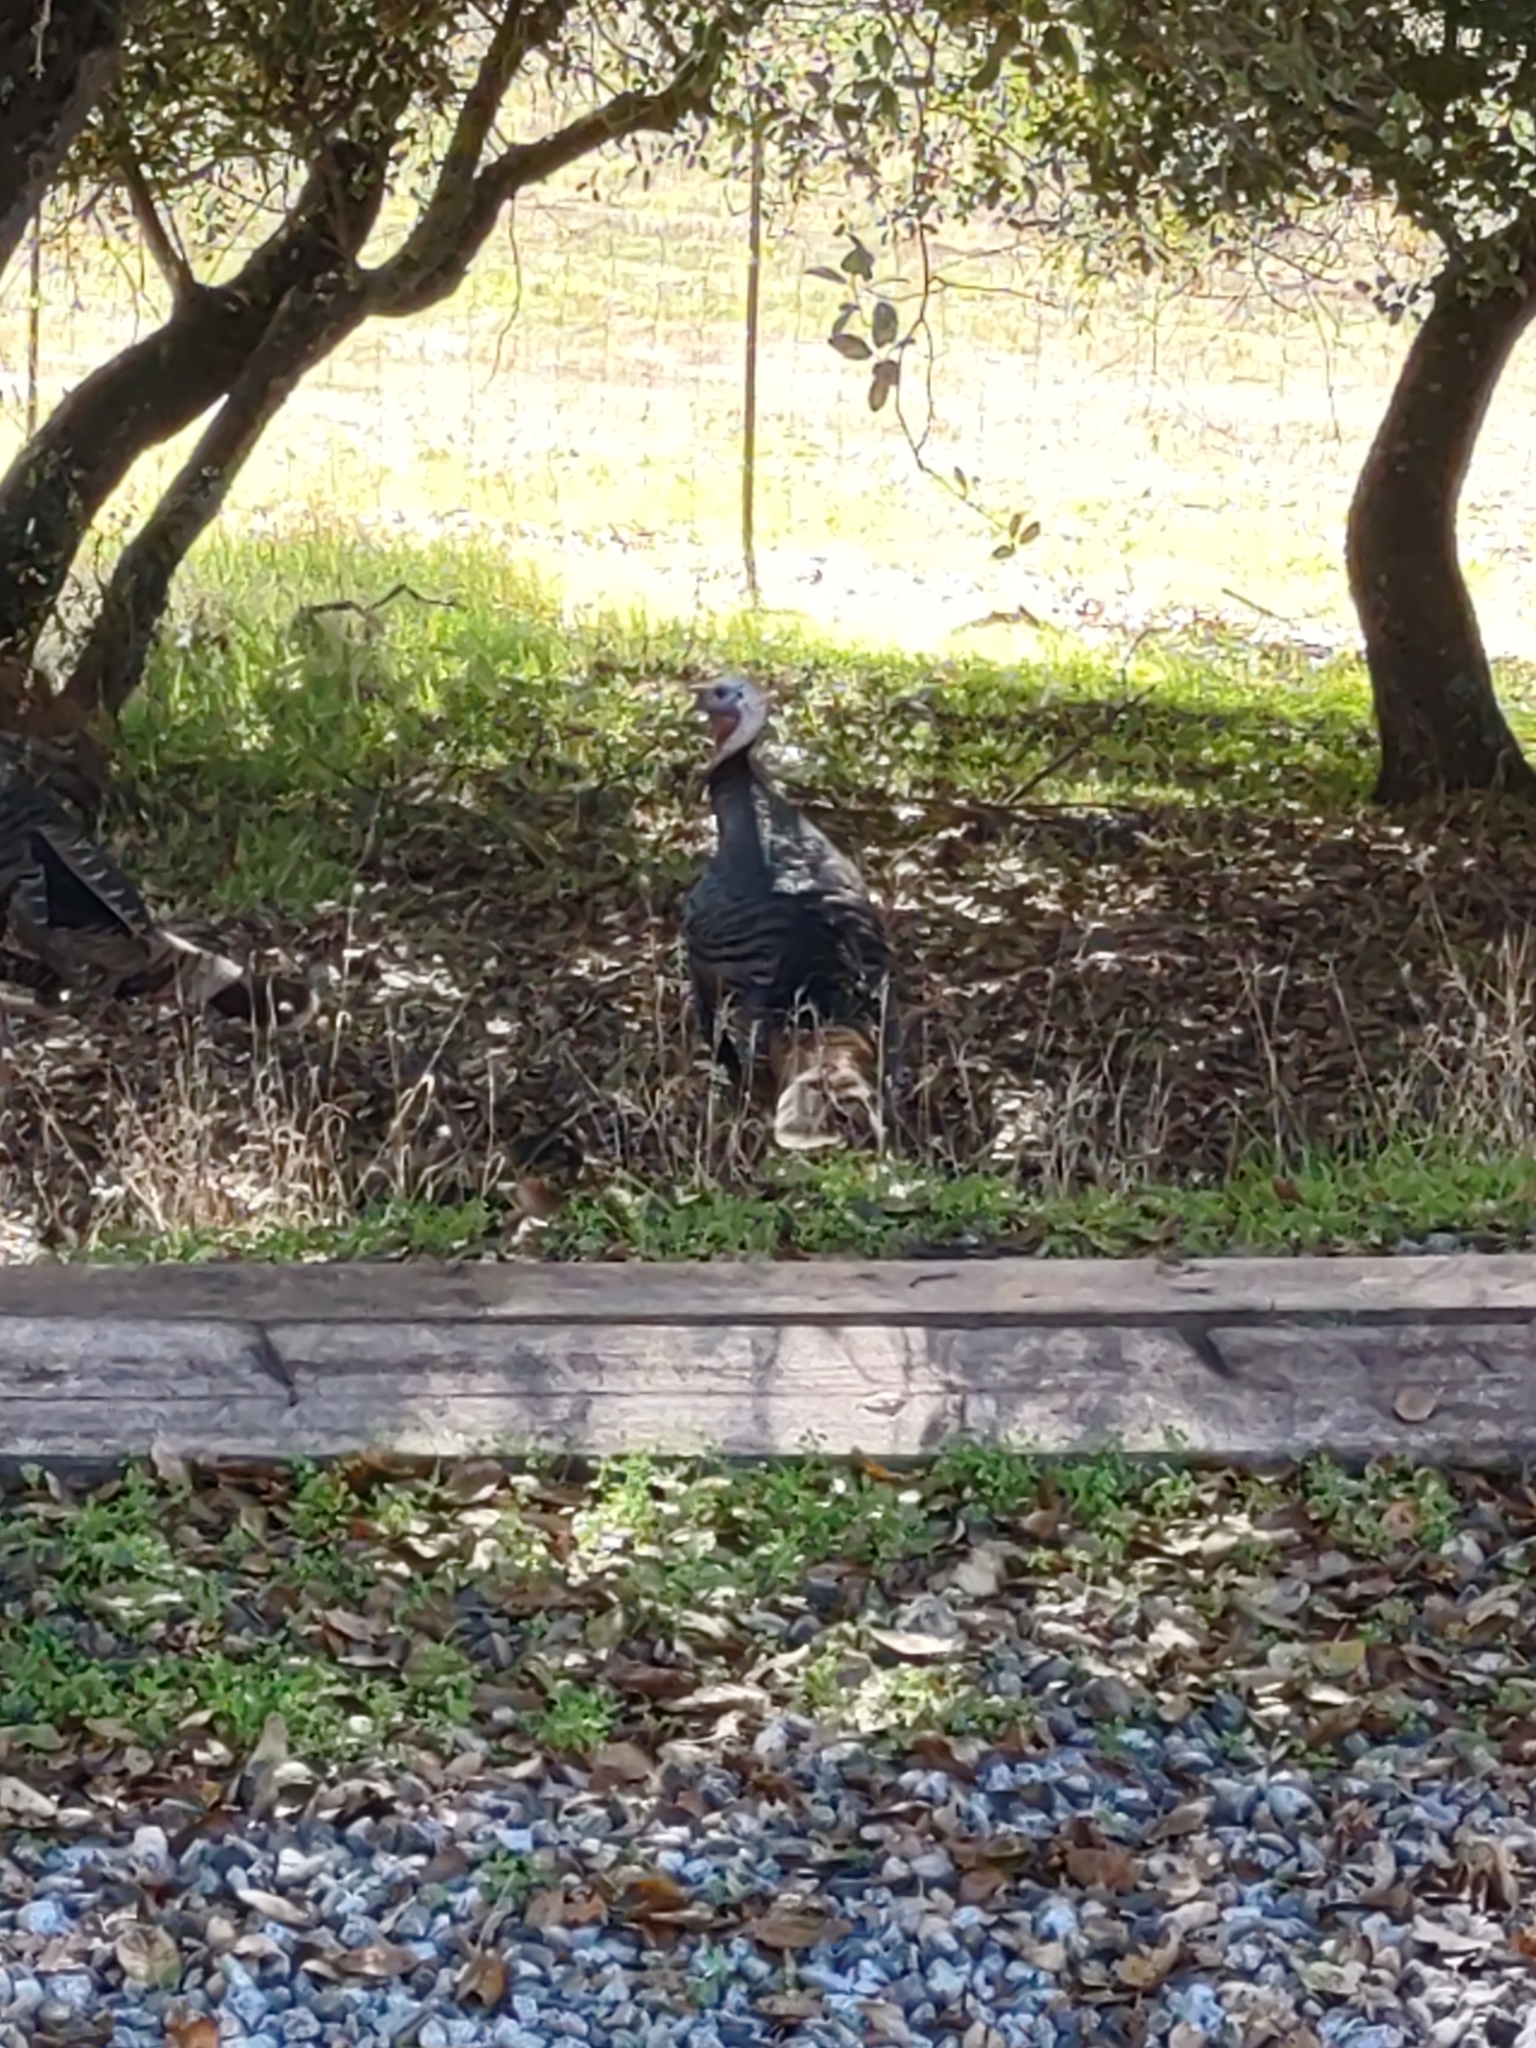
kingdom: Animalia
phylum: Chordata
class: Aves
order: Galliformes
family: Phasianidae
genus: Meleagris
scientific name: Meleagris gallopavo
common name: Wild turkey
